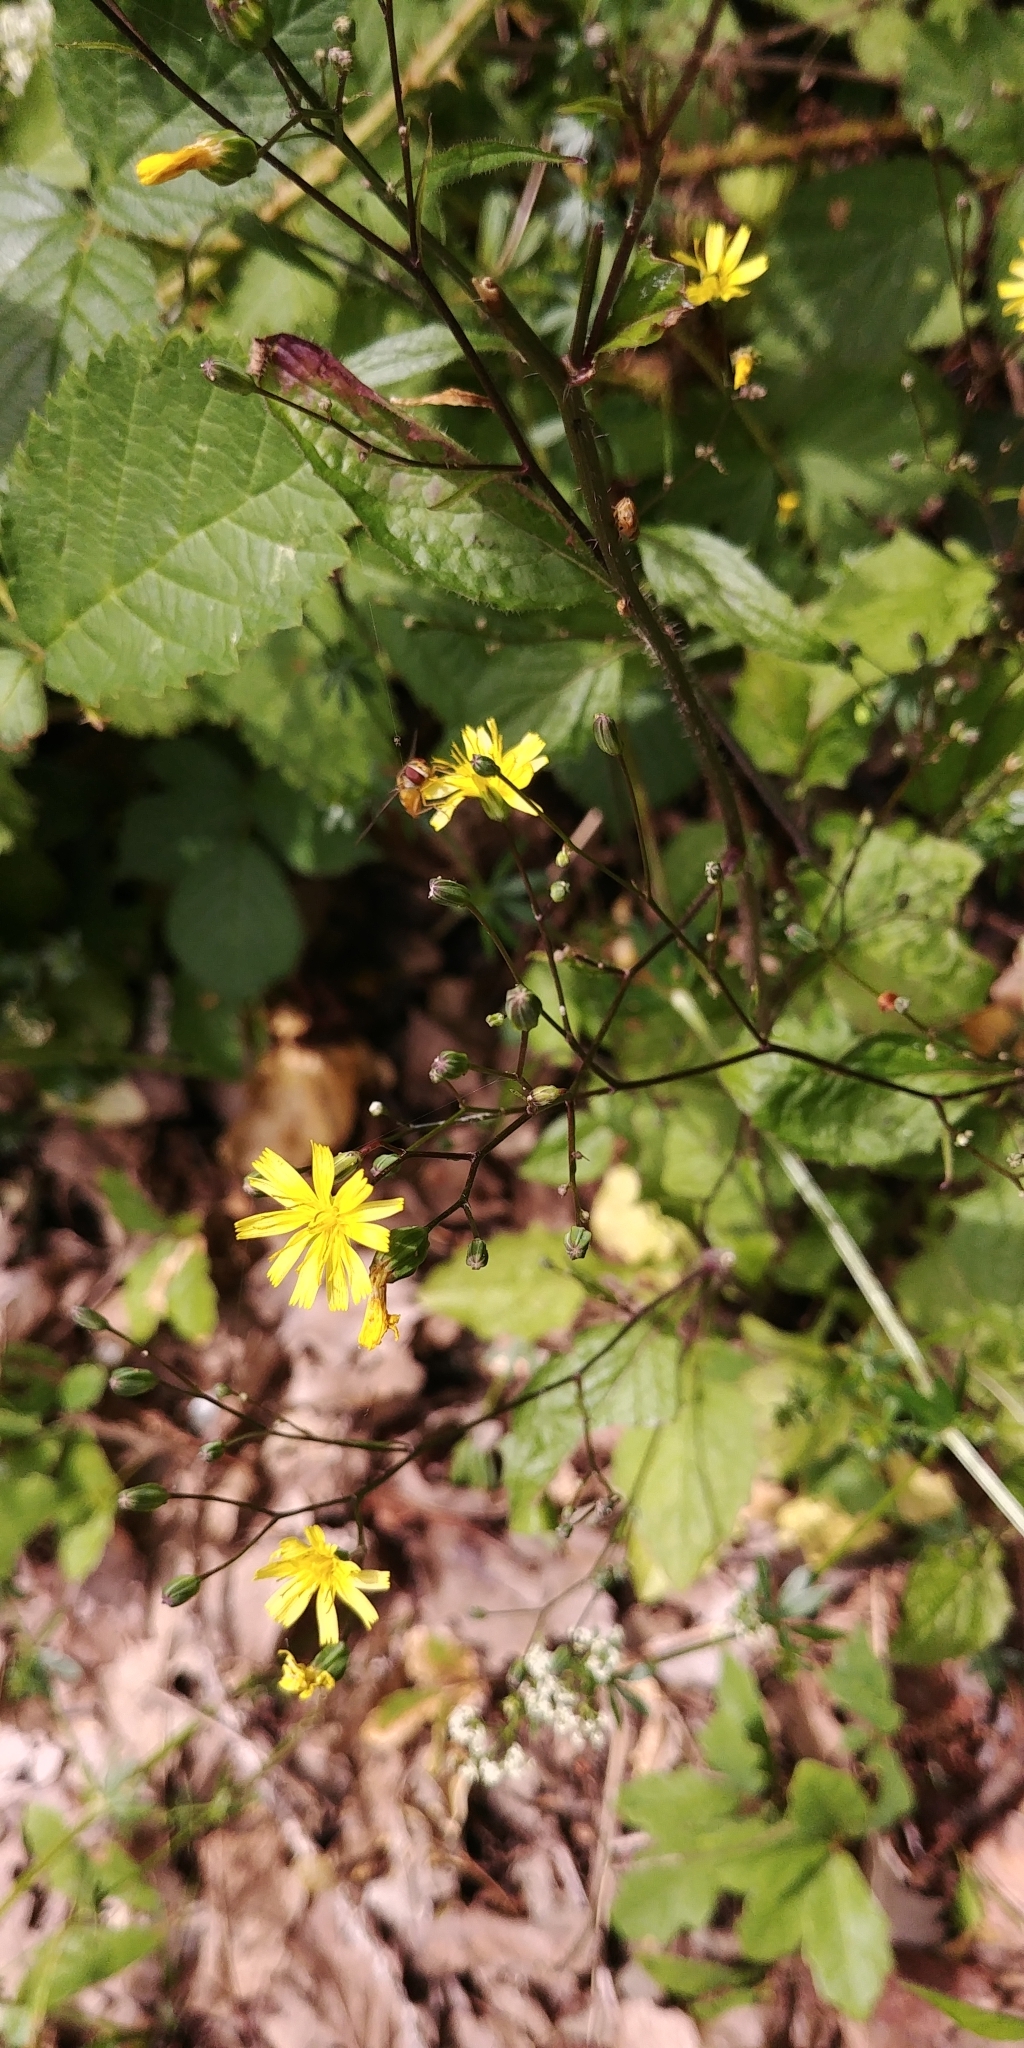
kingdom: Plantae
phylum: Tracheophyta
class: Magnoliopsida
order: Asterales
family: Asteraceae
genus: Lapsana
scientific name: Lapsana communis
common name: Nipplewort
